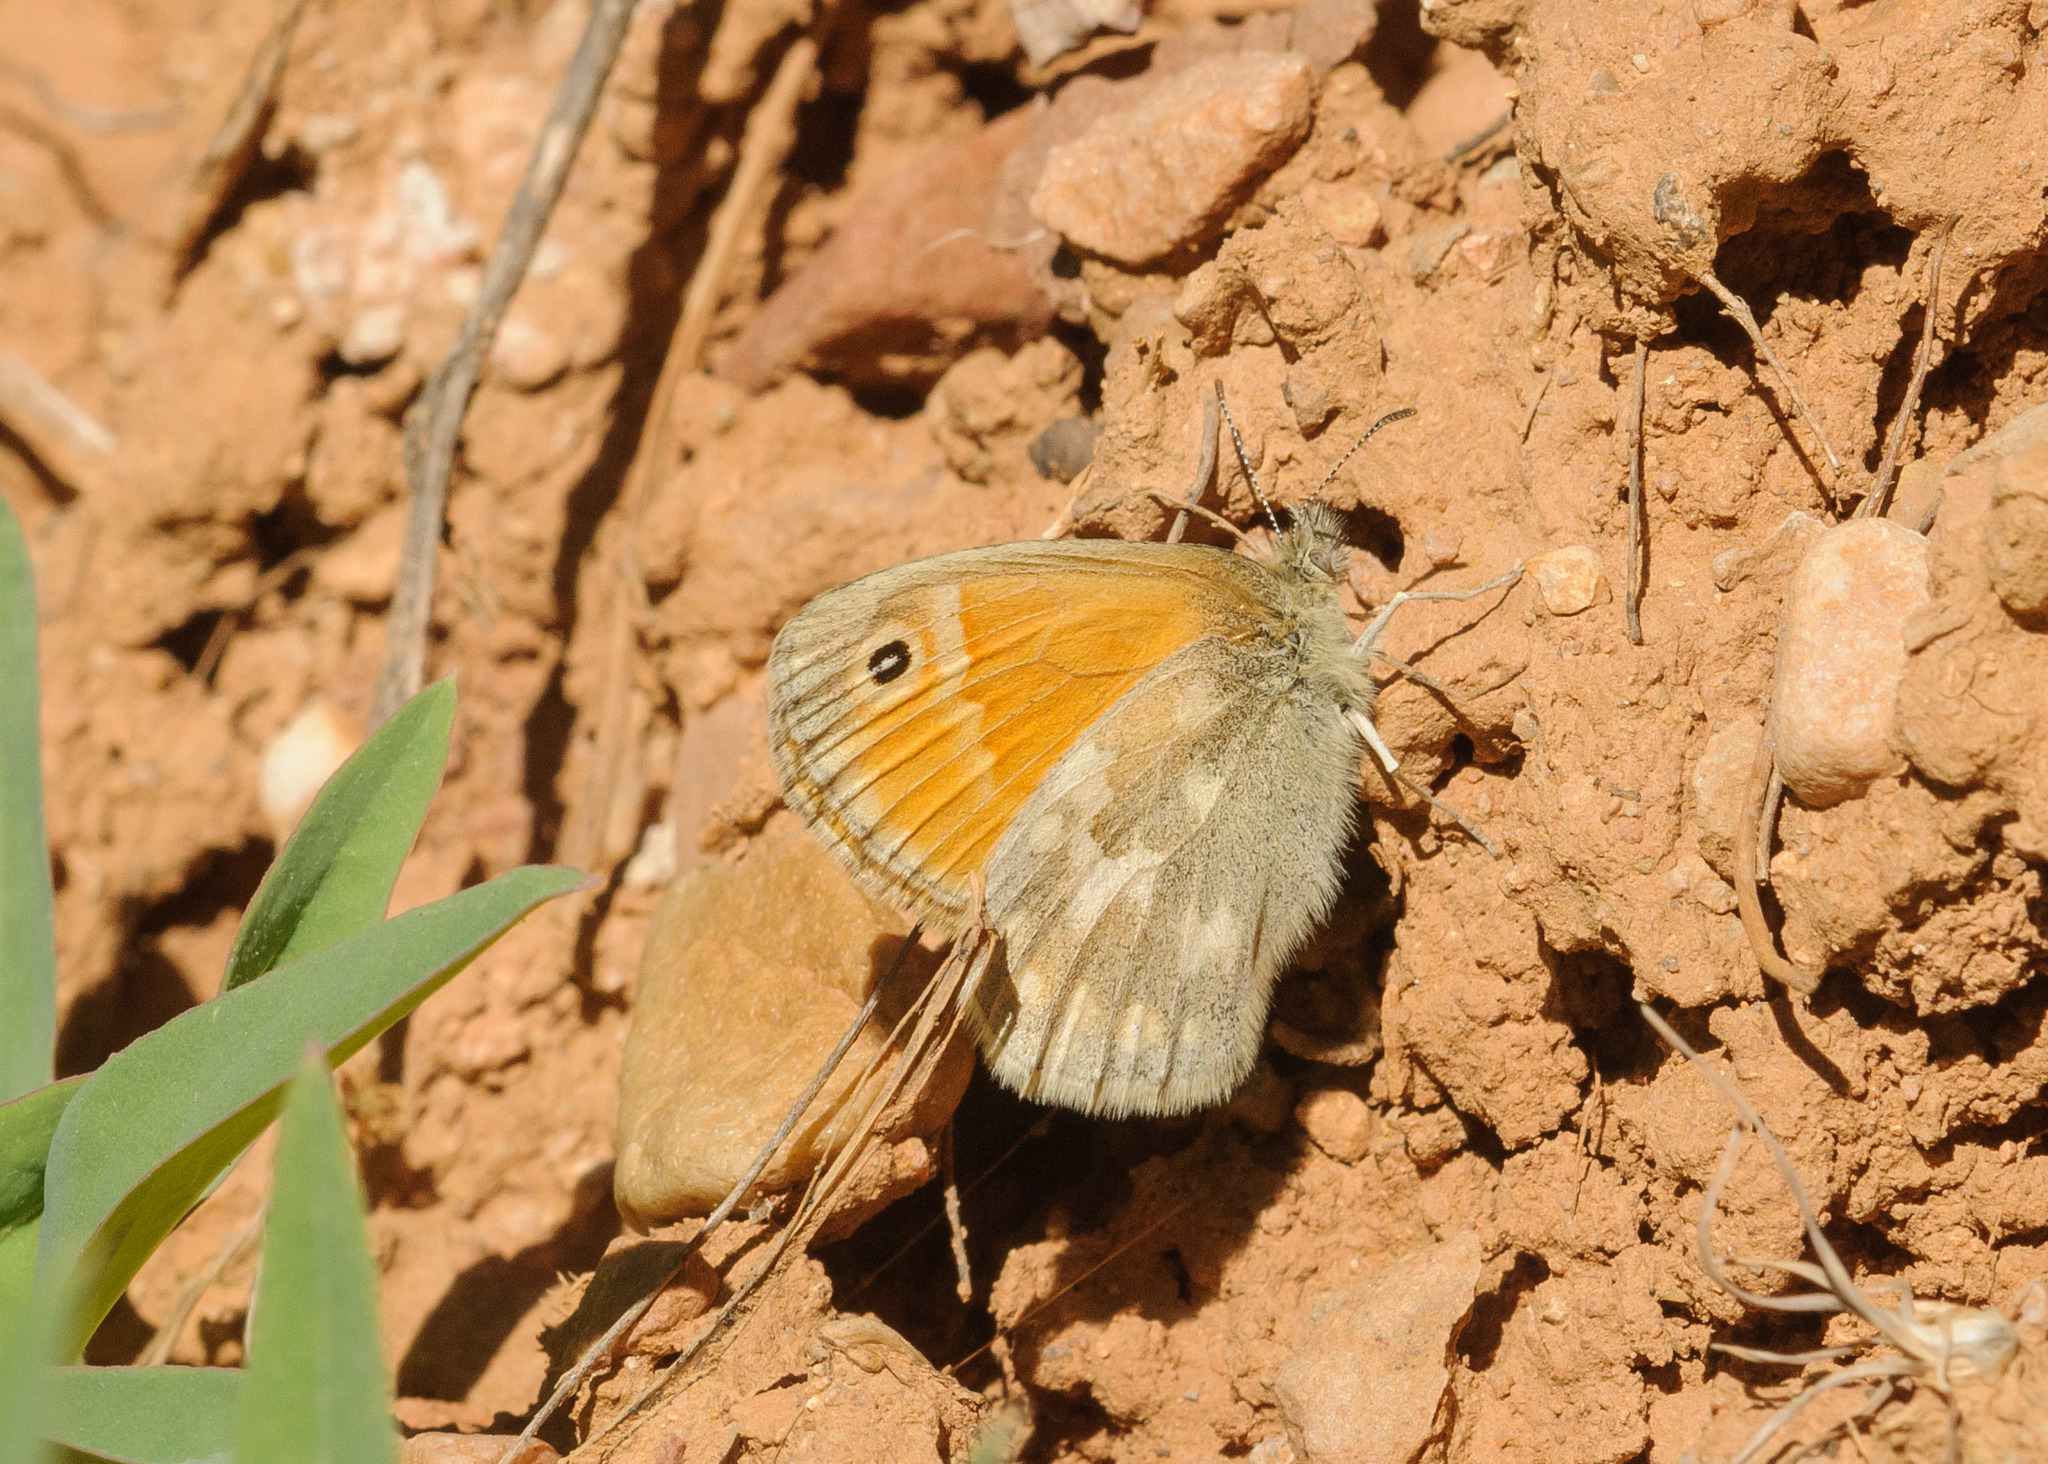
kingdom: Animalia
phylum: Arthropoda
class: Insecta
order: Lepidoptera
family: Nymphalidae
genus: Coenonympha
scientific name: Coenonympha california
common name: Common ringlet
